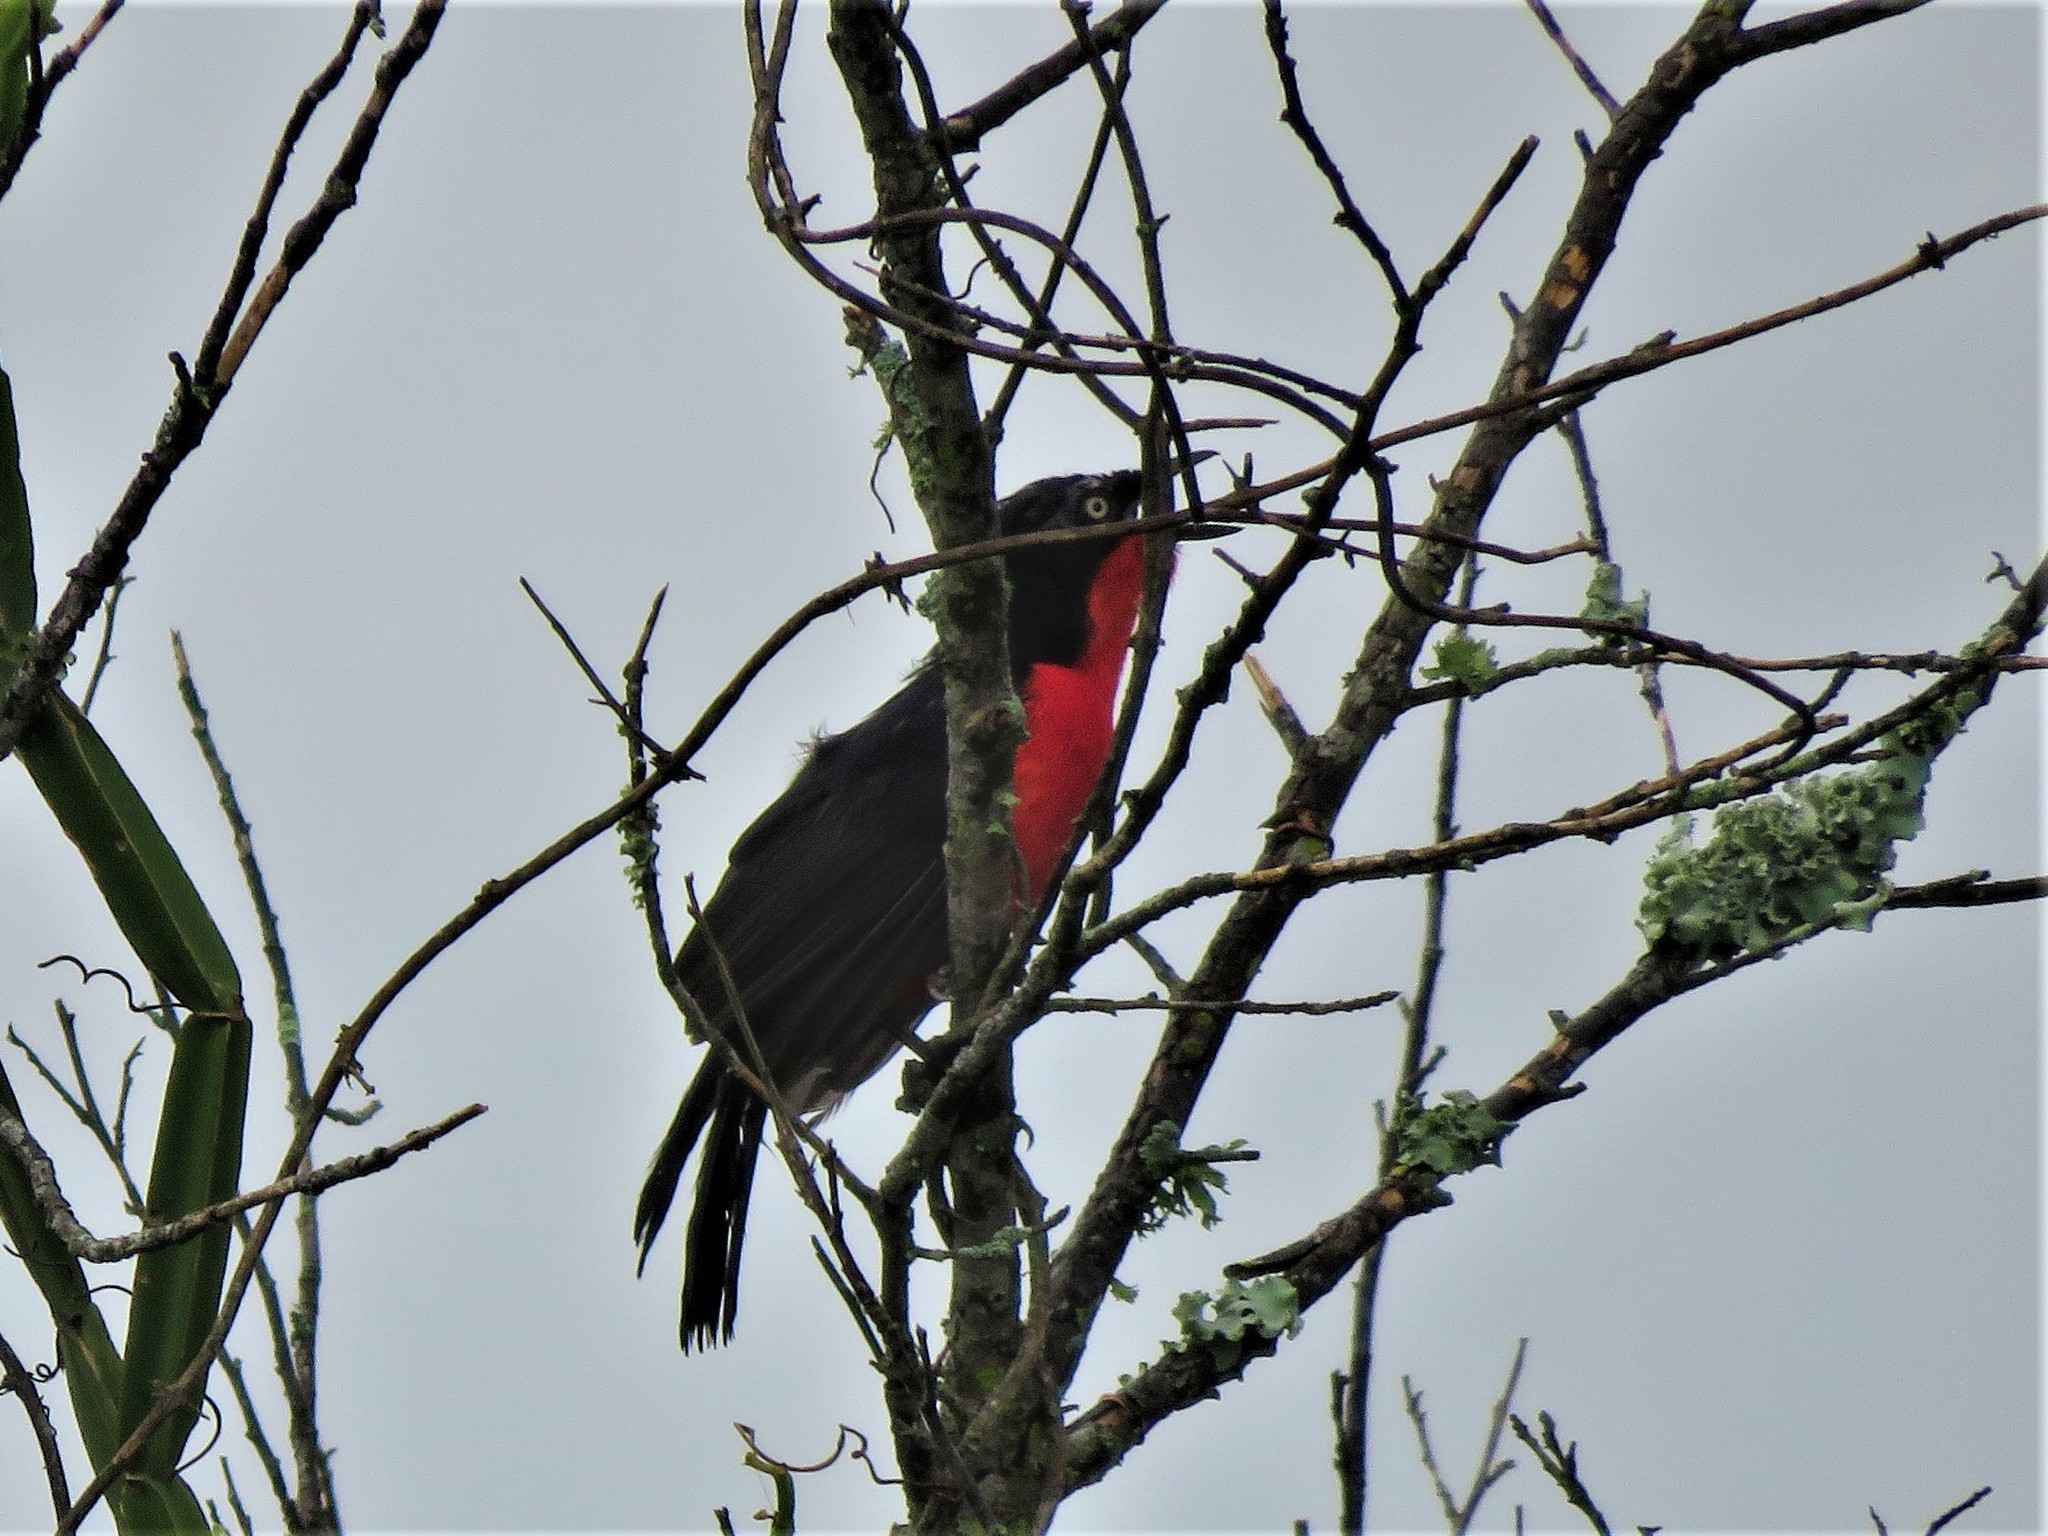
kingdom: Animalia
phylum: Chordata
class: Aves
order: Passeriformes
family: Malaconotidae
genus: Laniarius
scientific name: Laniarius erythrogaster
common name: Black-headed gonolek
